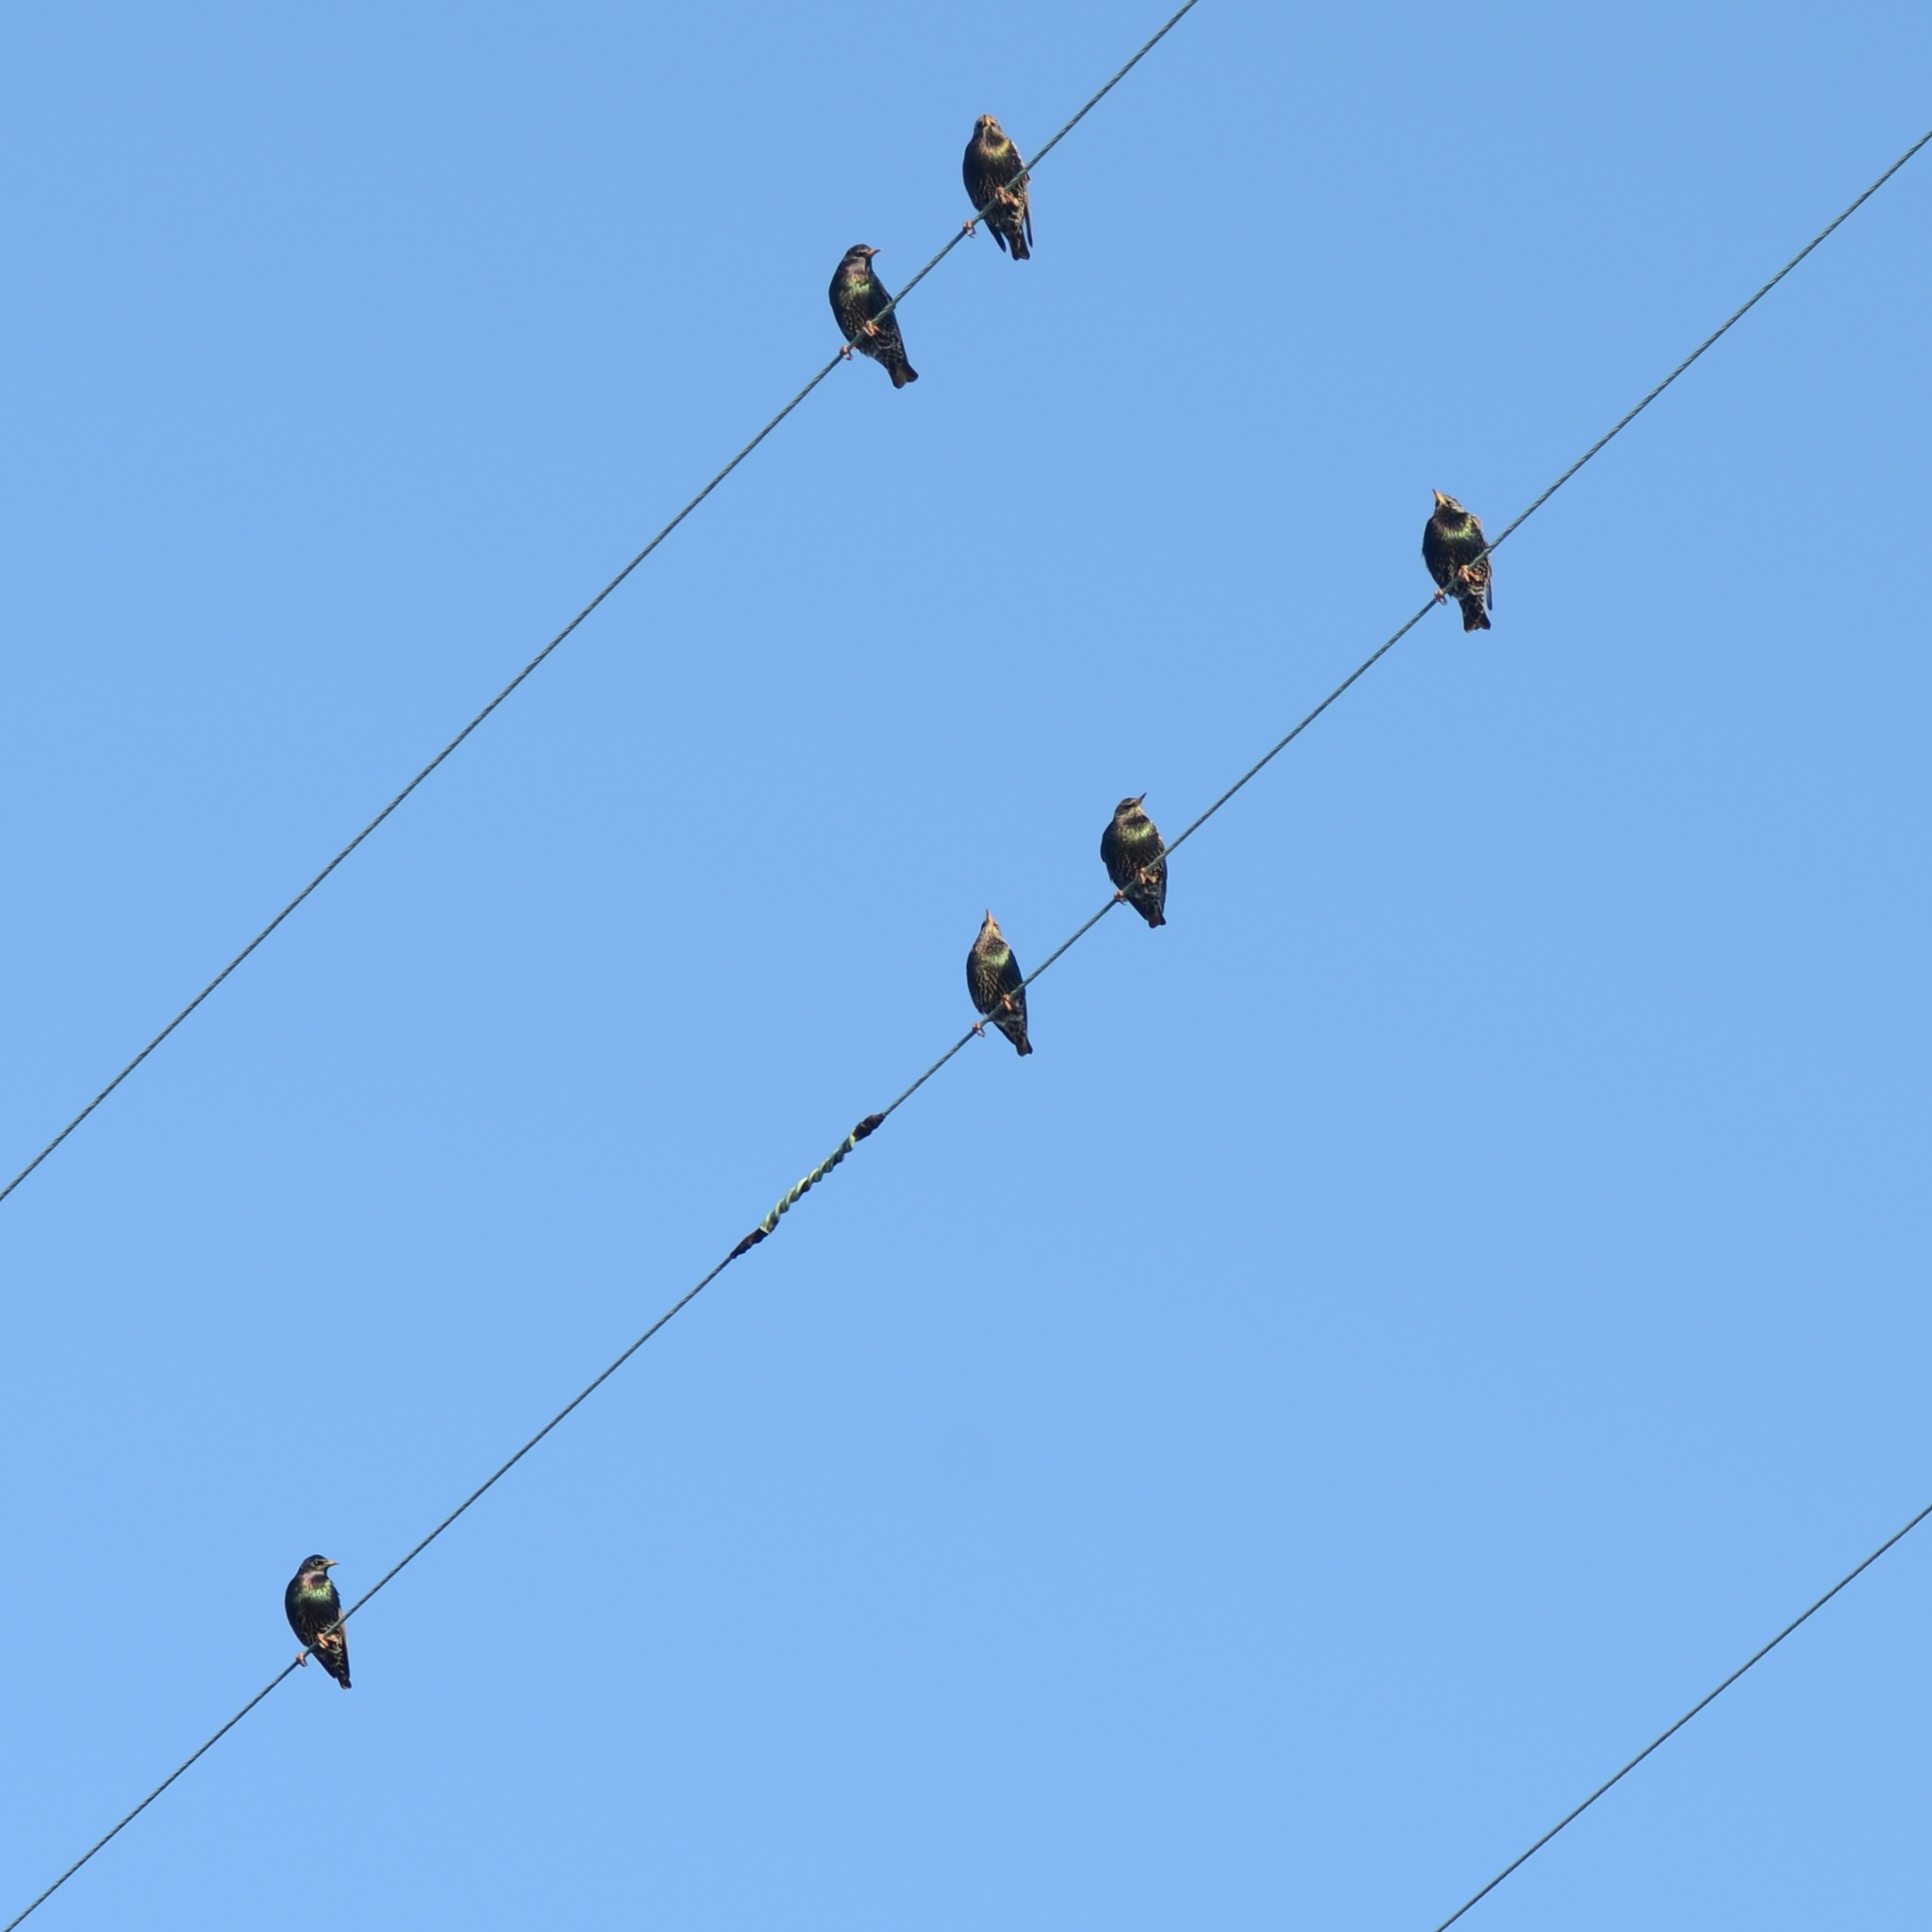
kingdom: Animalia
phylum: Chordata
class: Aves
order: Passeriformes
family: Sturnidae
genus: Sturnus
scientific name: Sturnus vulgaris
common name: Common starling
